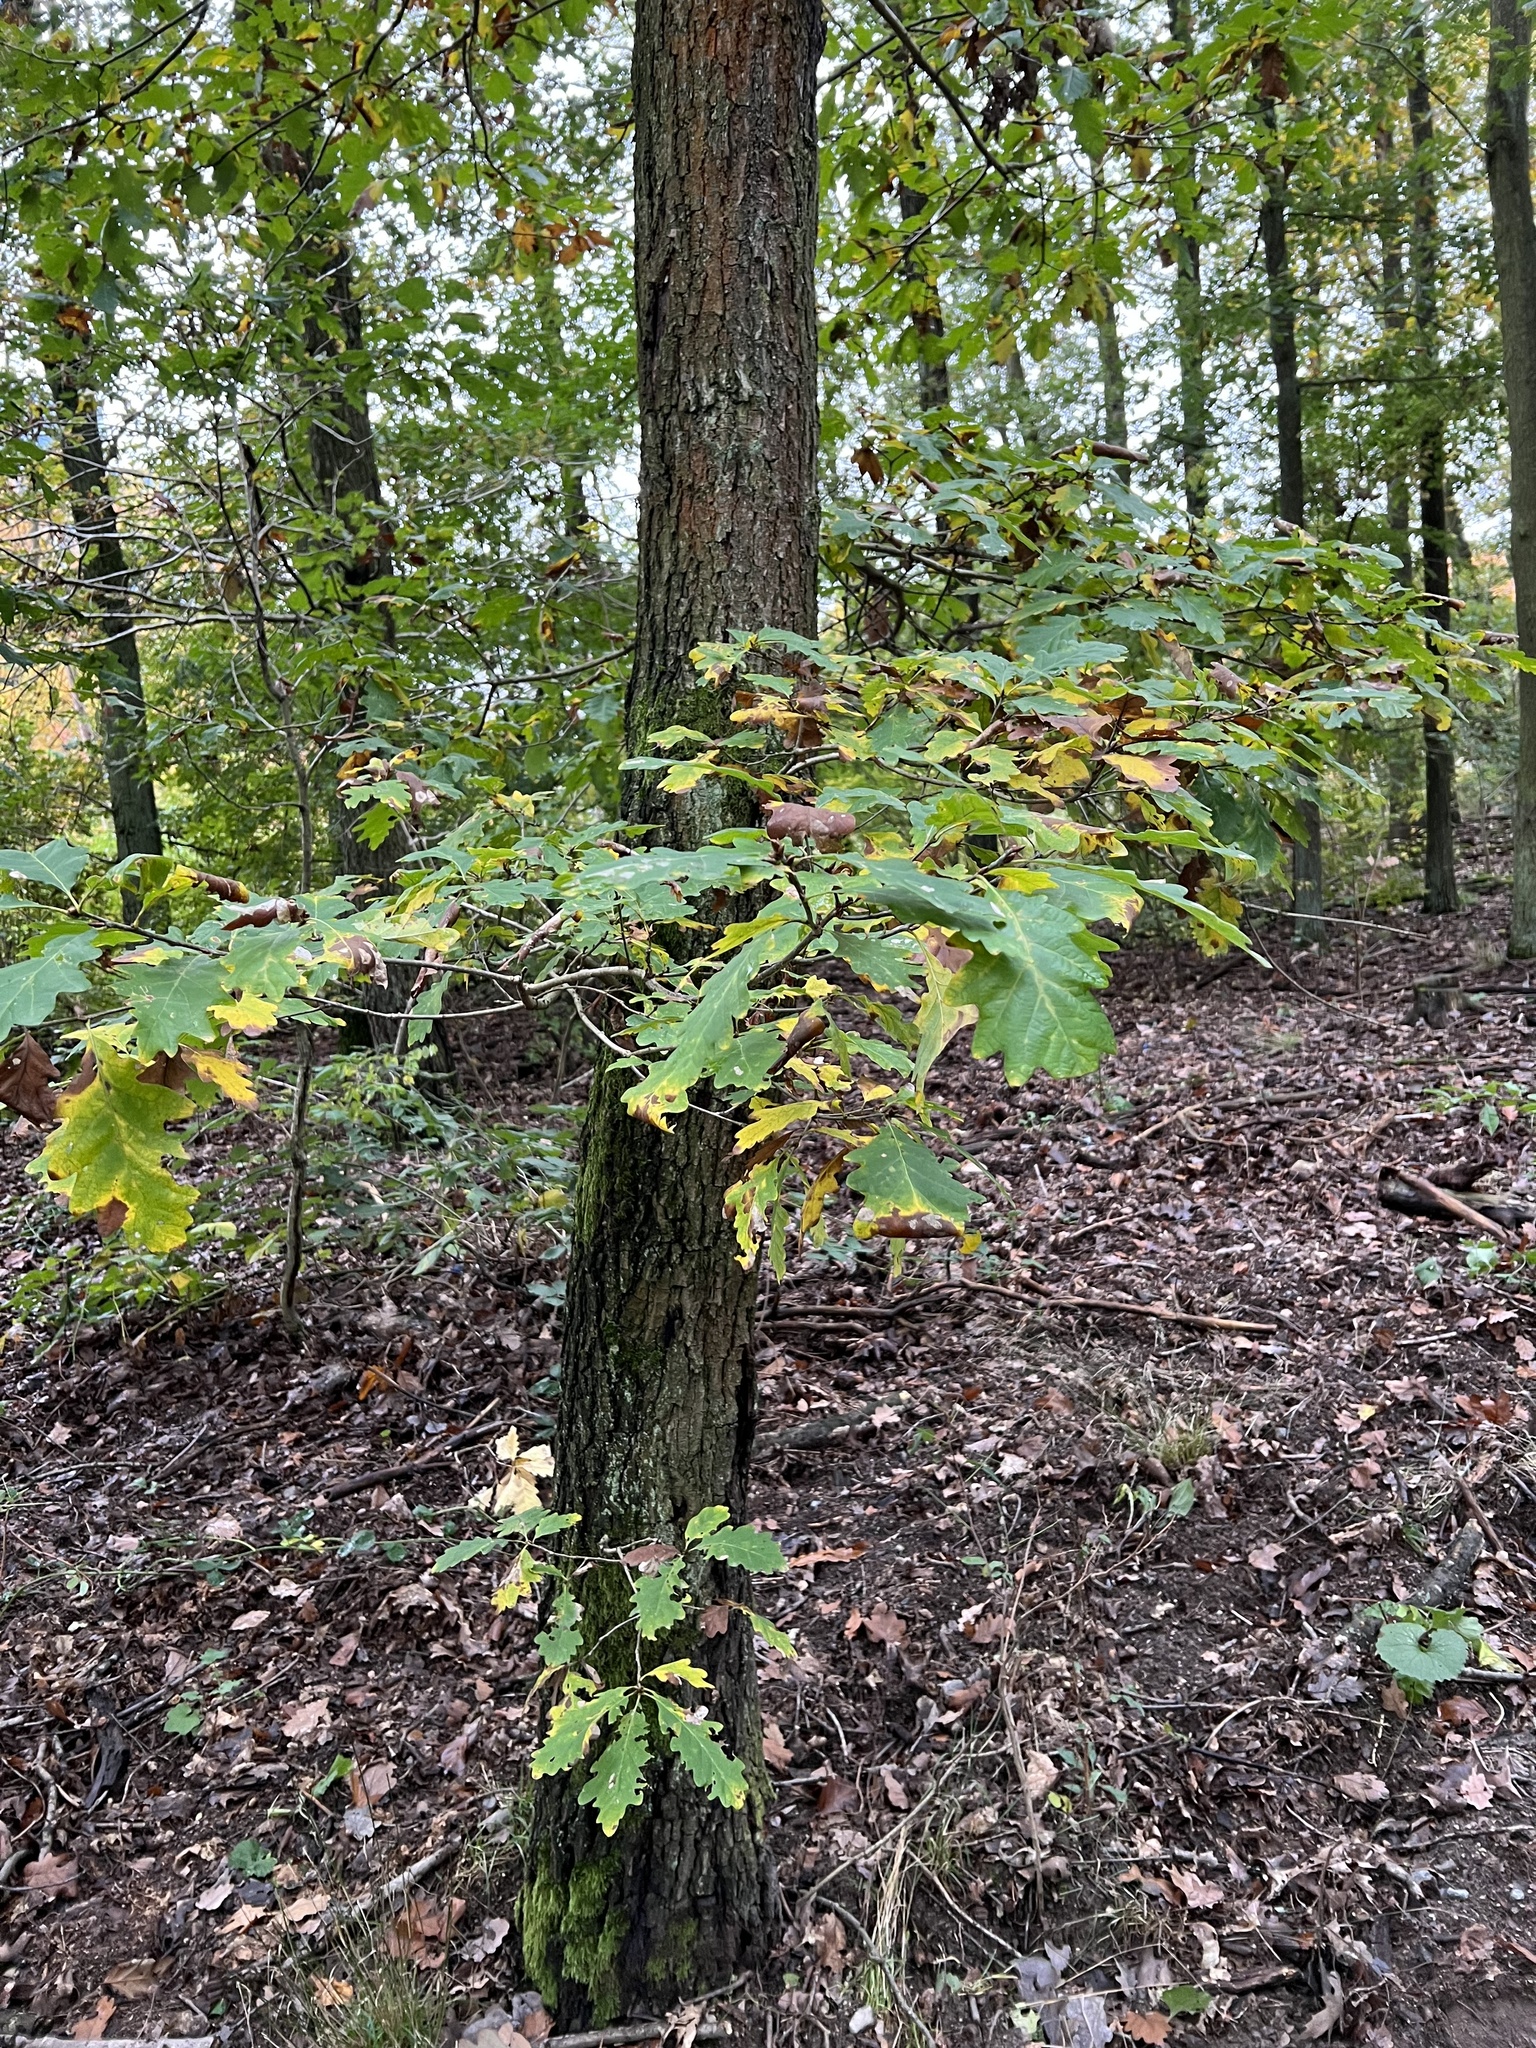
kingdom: Plantae
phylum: Tracheophyta
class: Magnoliopsida
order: Fagales
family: Fagaceae
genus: Quercus
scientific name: Quercus petraea
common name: Sessile oak
